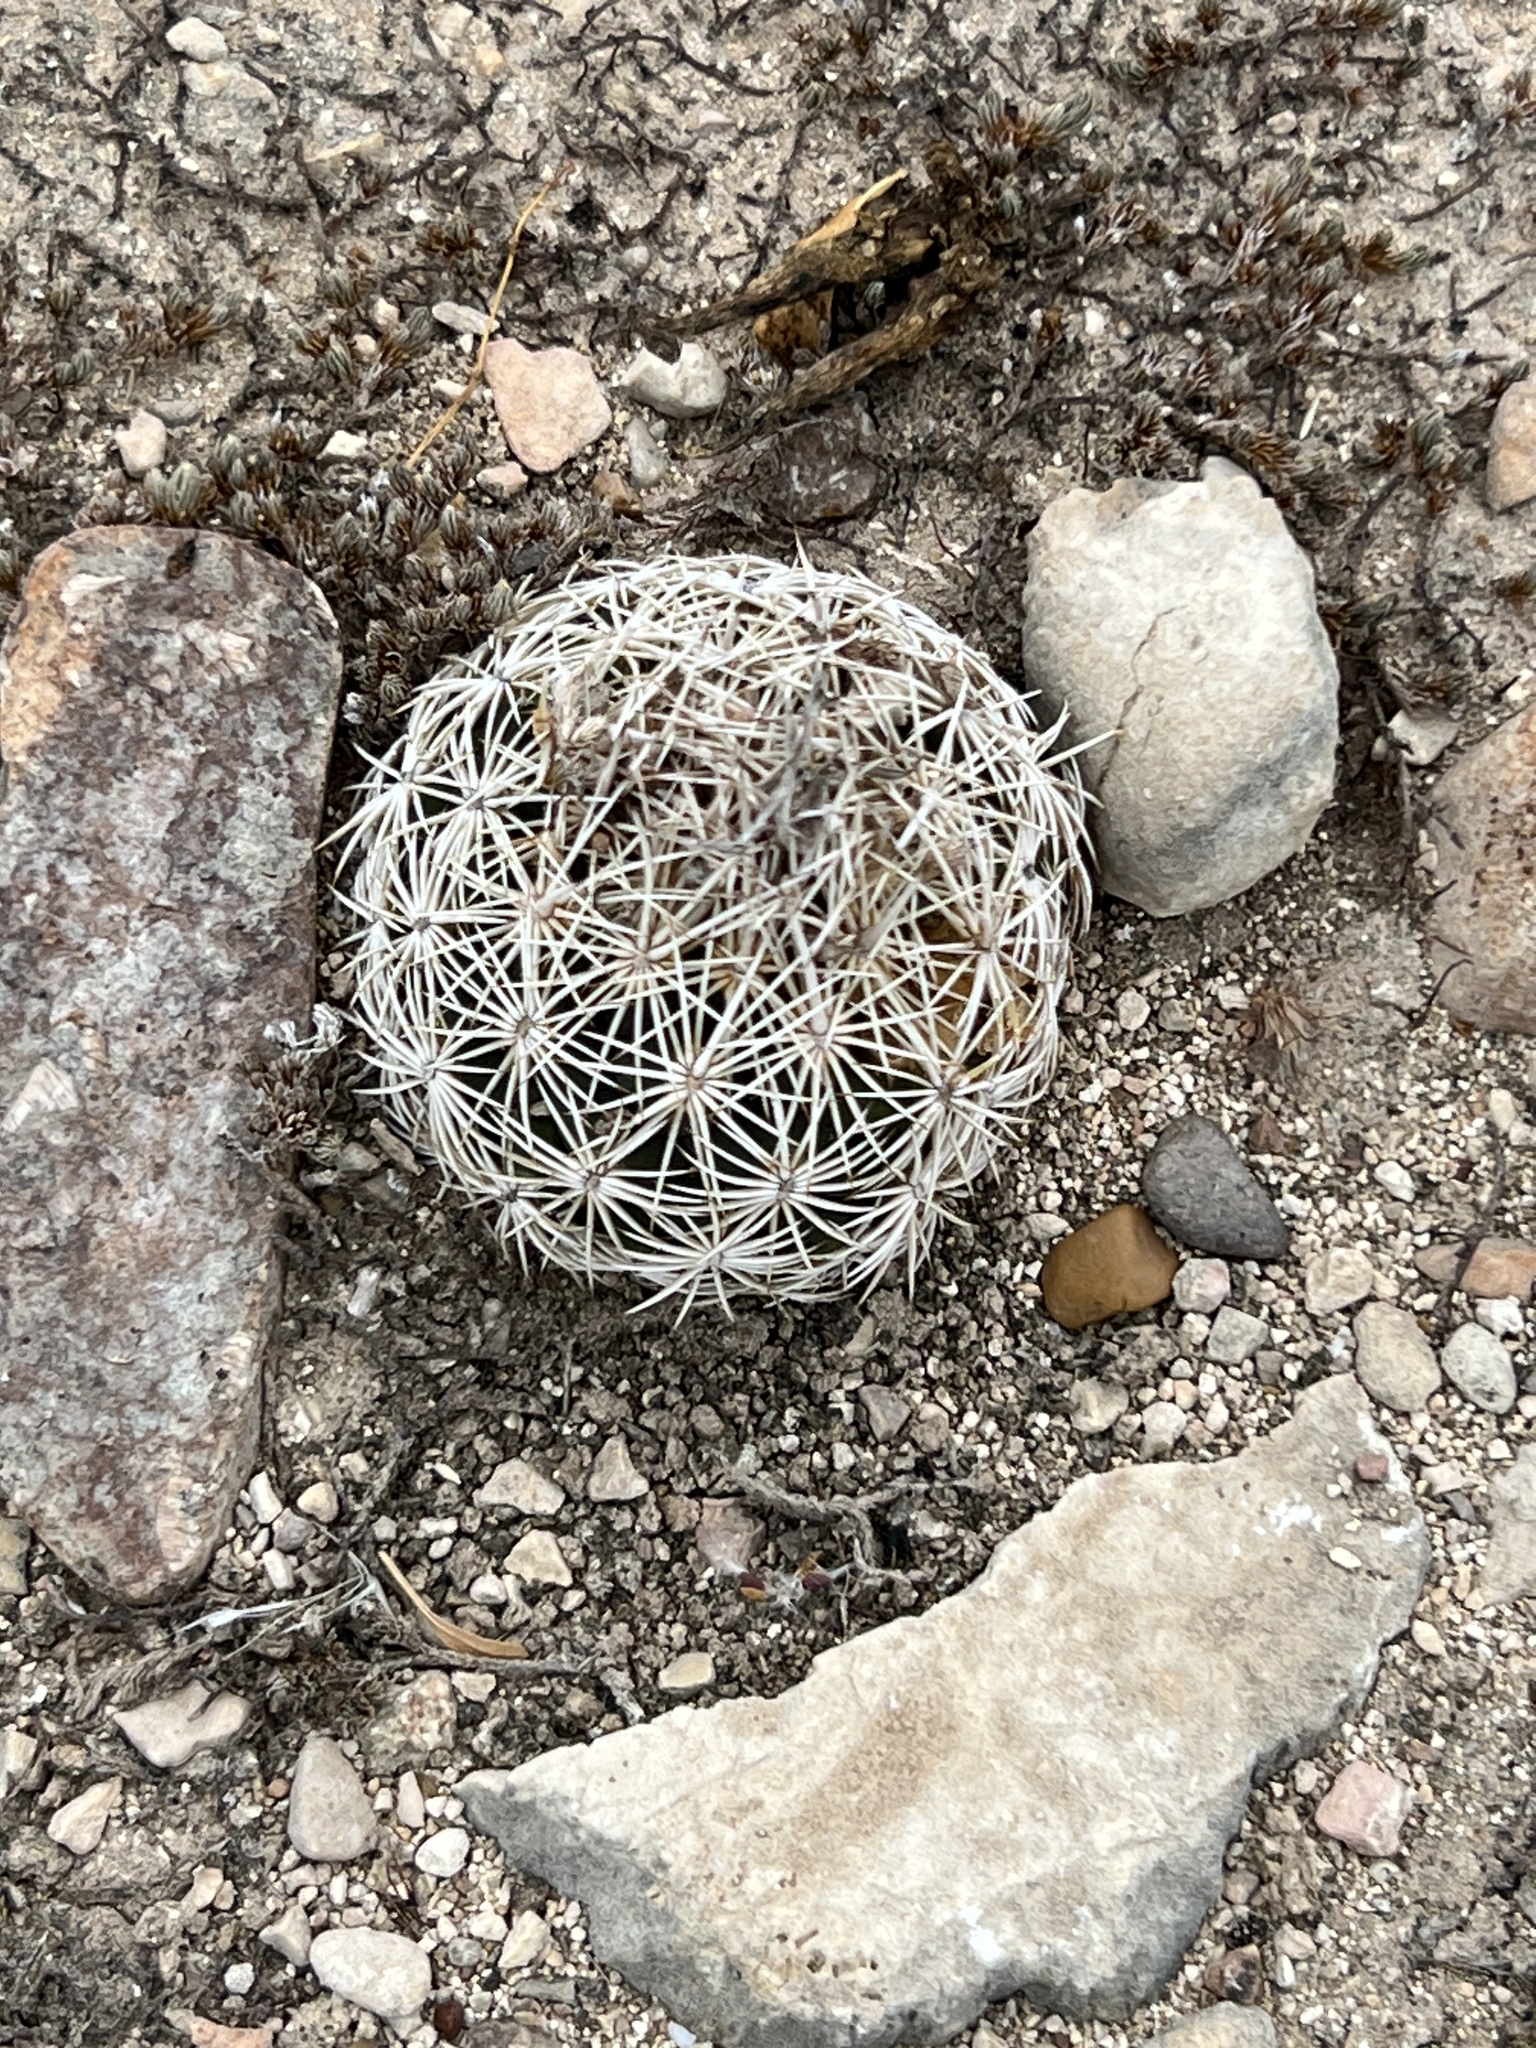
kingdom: Plantae
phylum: Tracheophyta
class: Magnoliopsida
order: Caryophyllales
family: Cactaceae
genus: Coryphantha
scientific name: Coryphantha echinus
